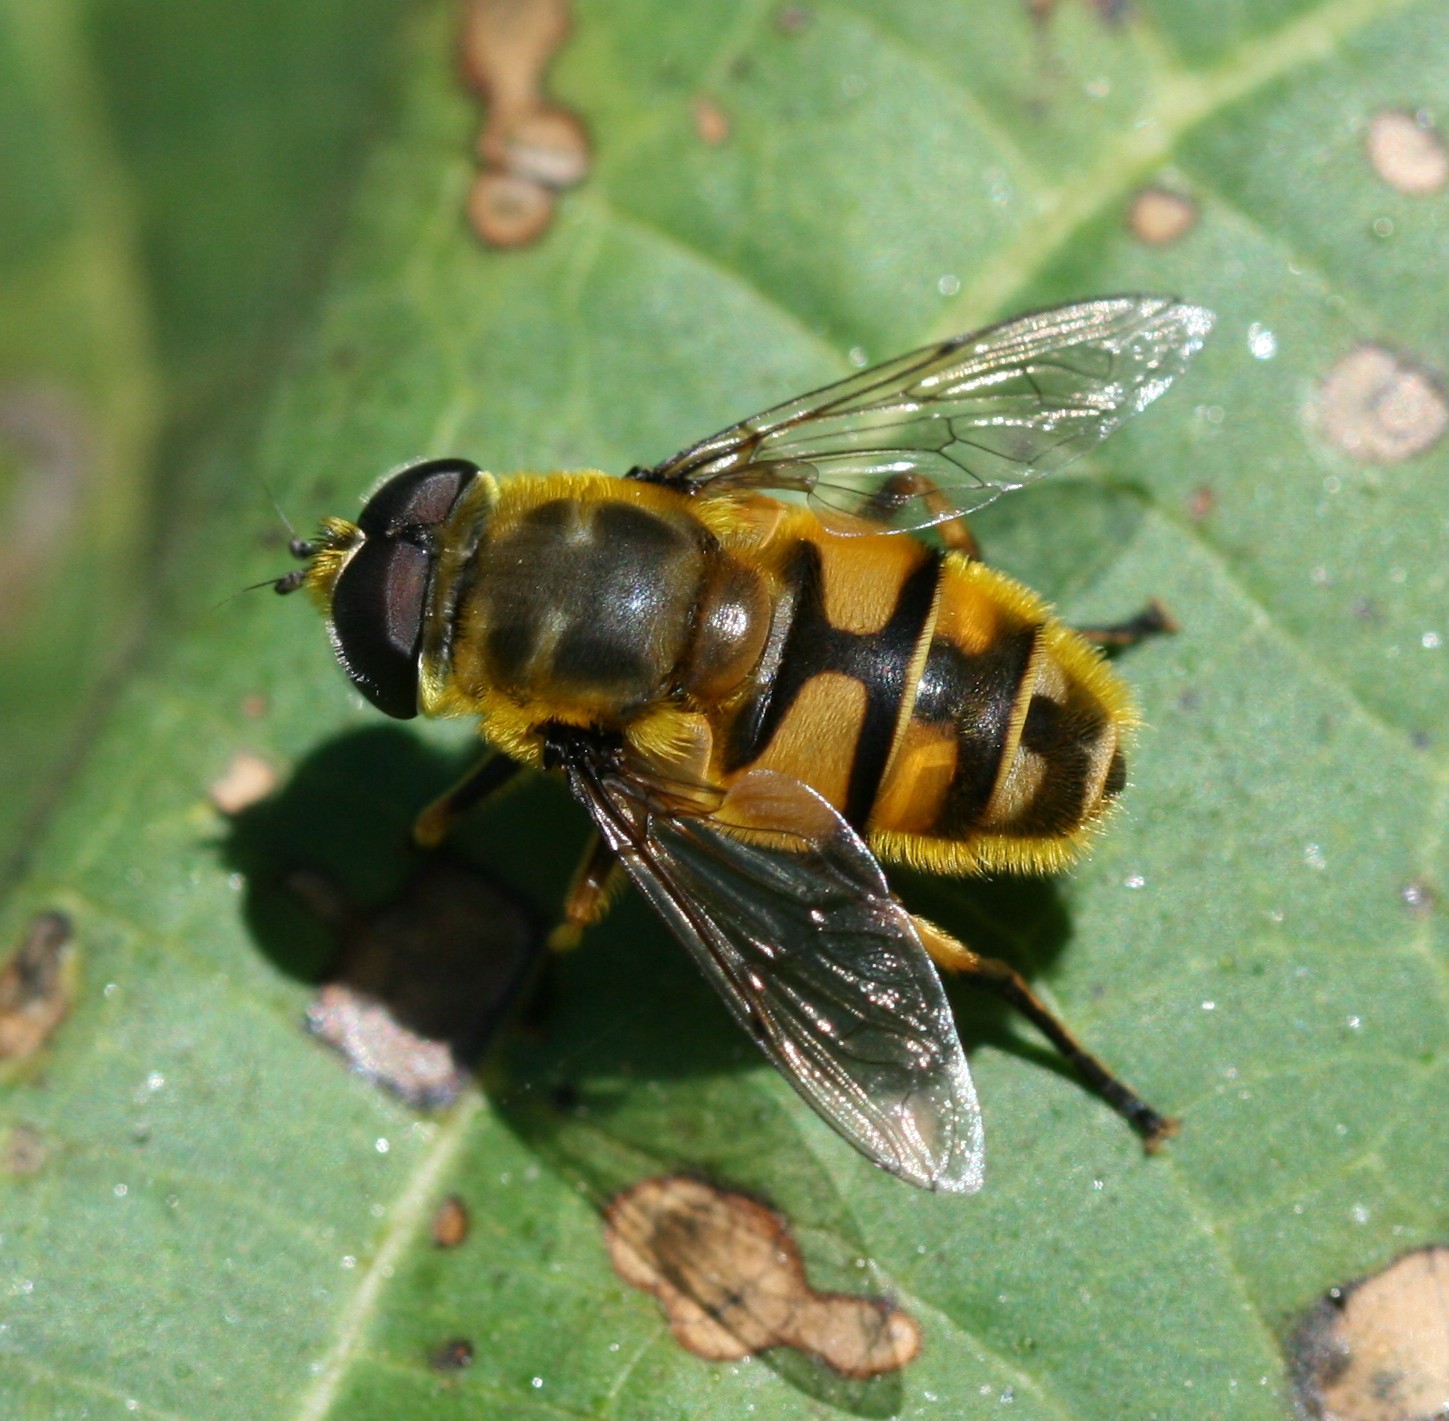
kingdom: Animalia
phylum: Arthropoda
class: Insecta
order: Diptera
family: Syrphidae
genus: Myathropa
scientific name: Myathropa florea
